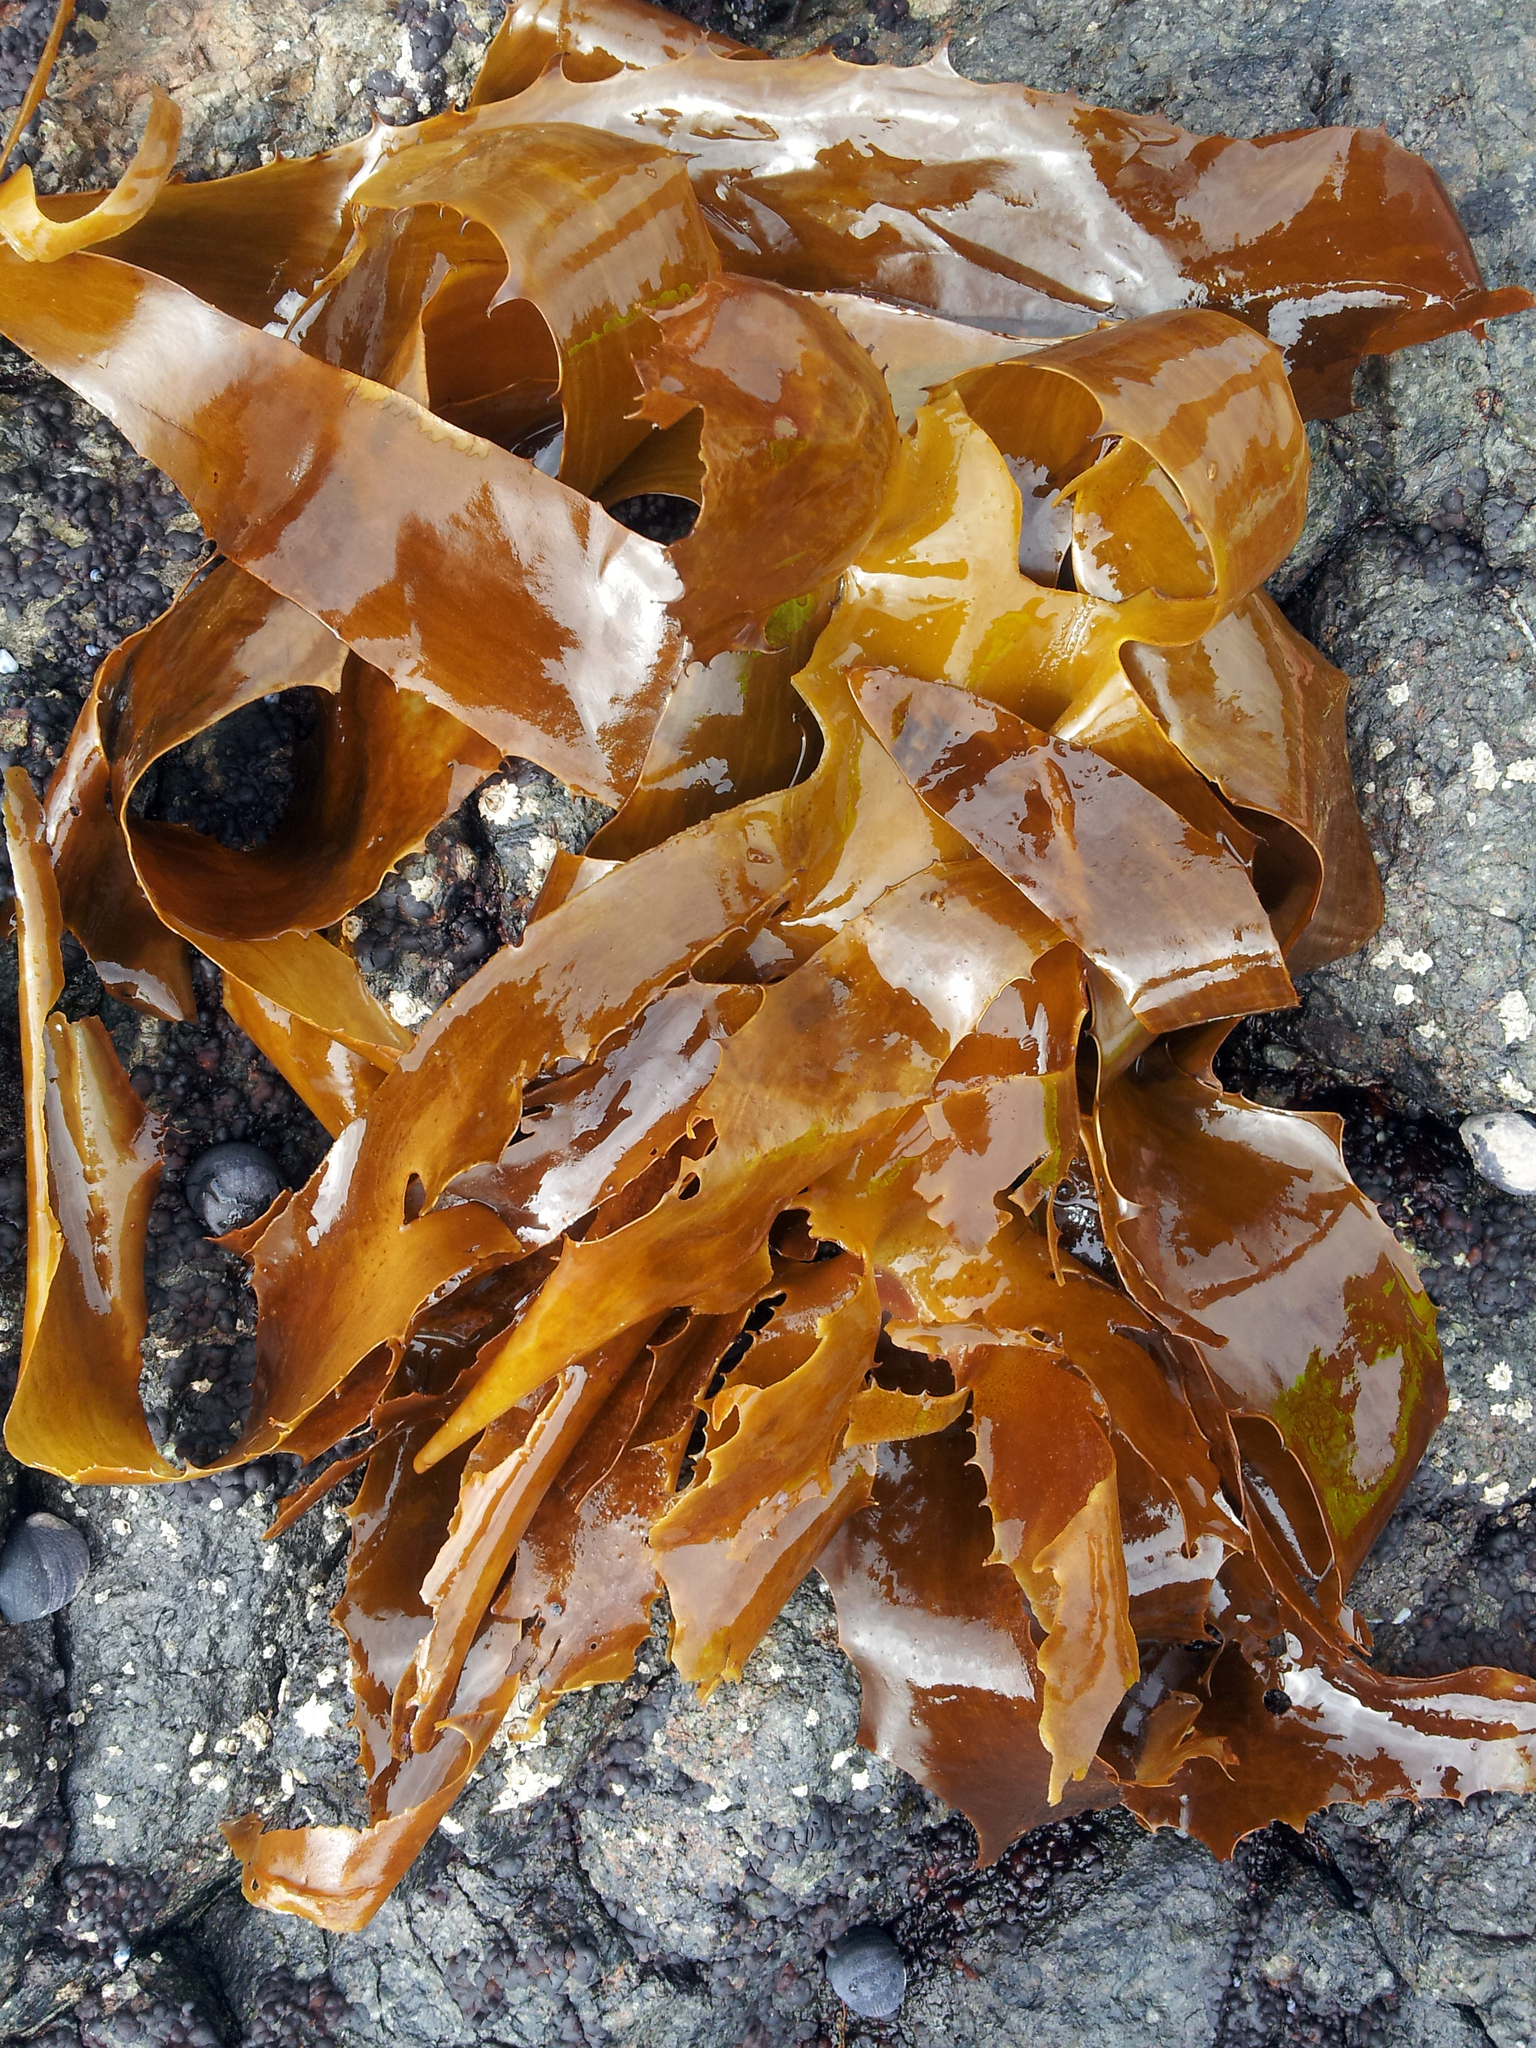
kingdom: Chromista
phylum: Ochrophyta
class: Phaeophyceae
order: Laminariales
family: Lessoniaceae
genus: Ecklonia
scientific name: Ecklonia radiata
